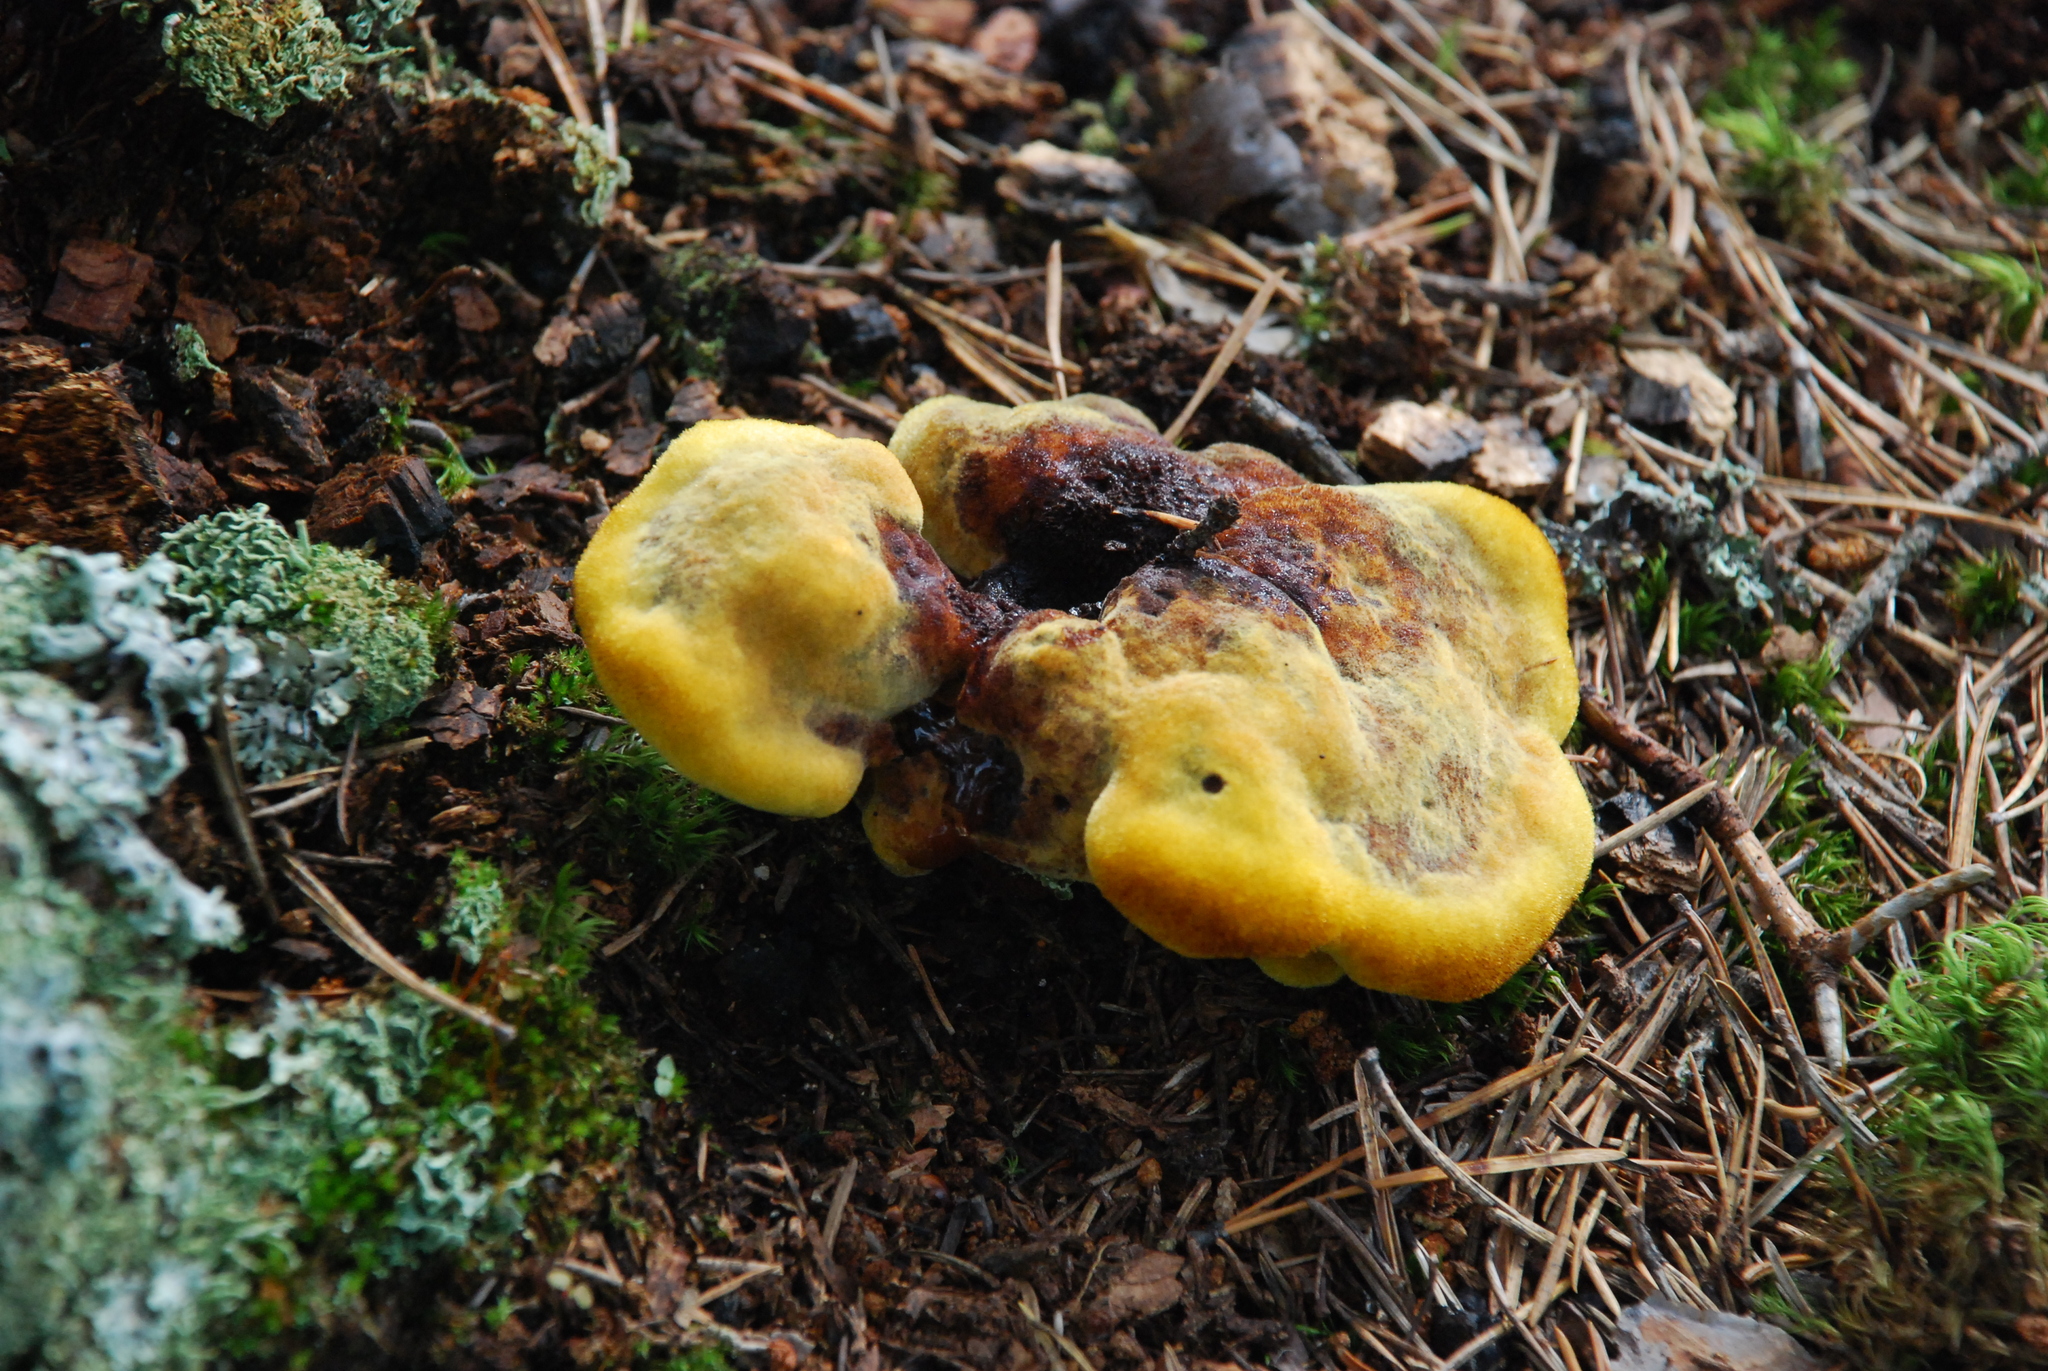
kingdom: Fungi
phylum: Basidiomycota
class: Agaricomycetes
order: Polyporales
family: Laetiporaceae
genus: Phaeolus
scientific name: Phaeolus schweinitzii
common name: Dyer's mazegill
